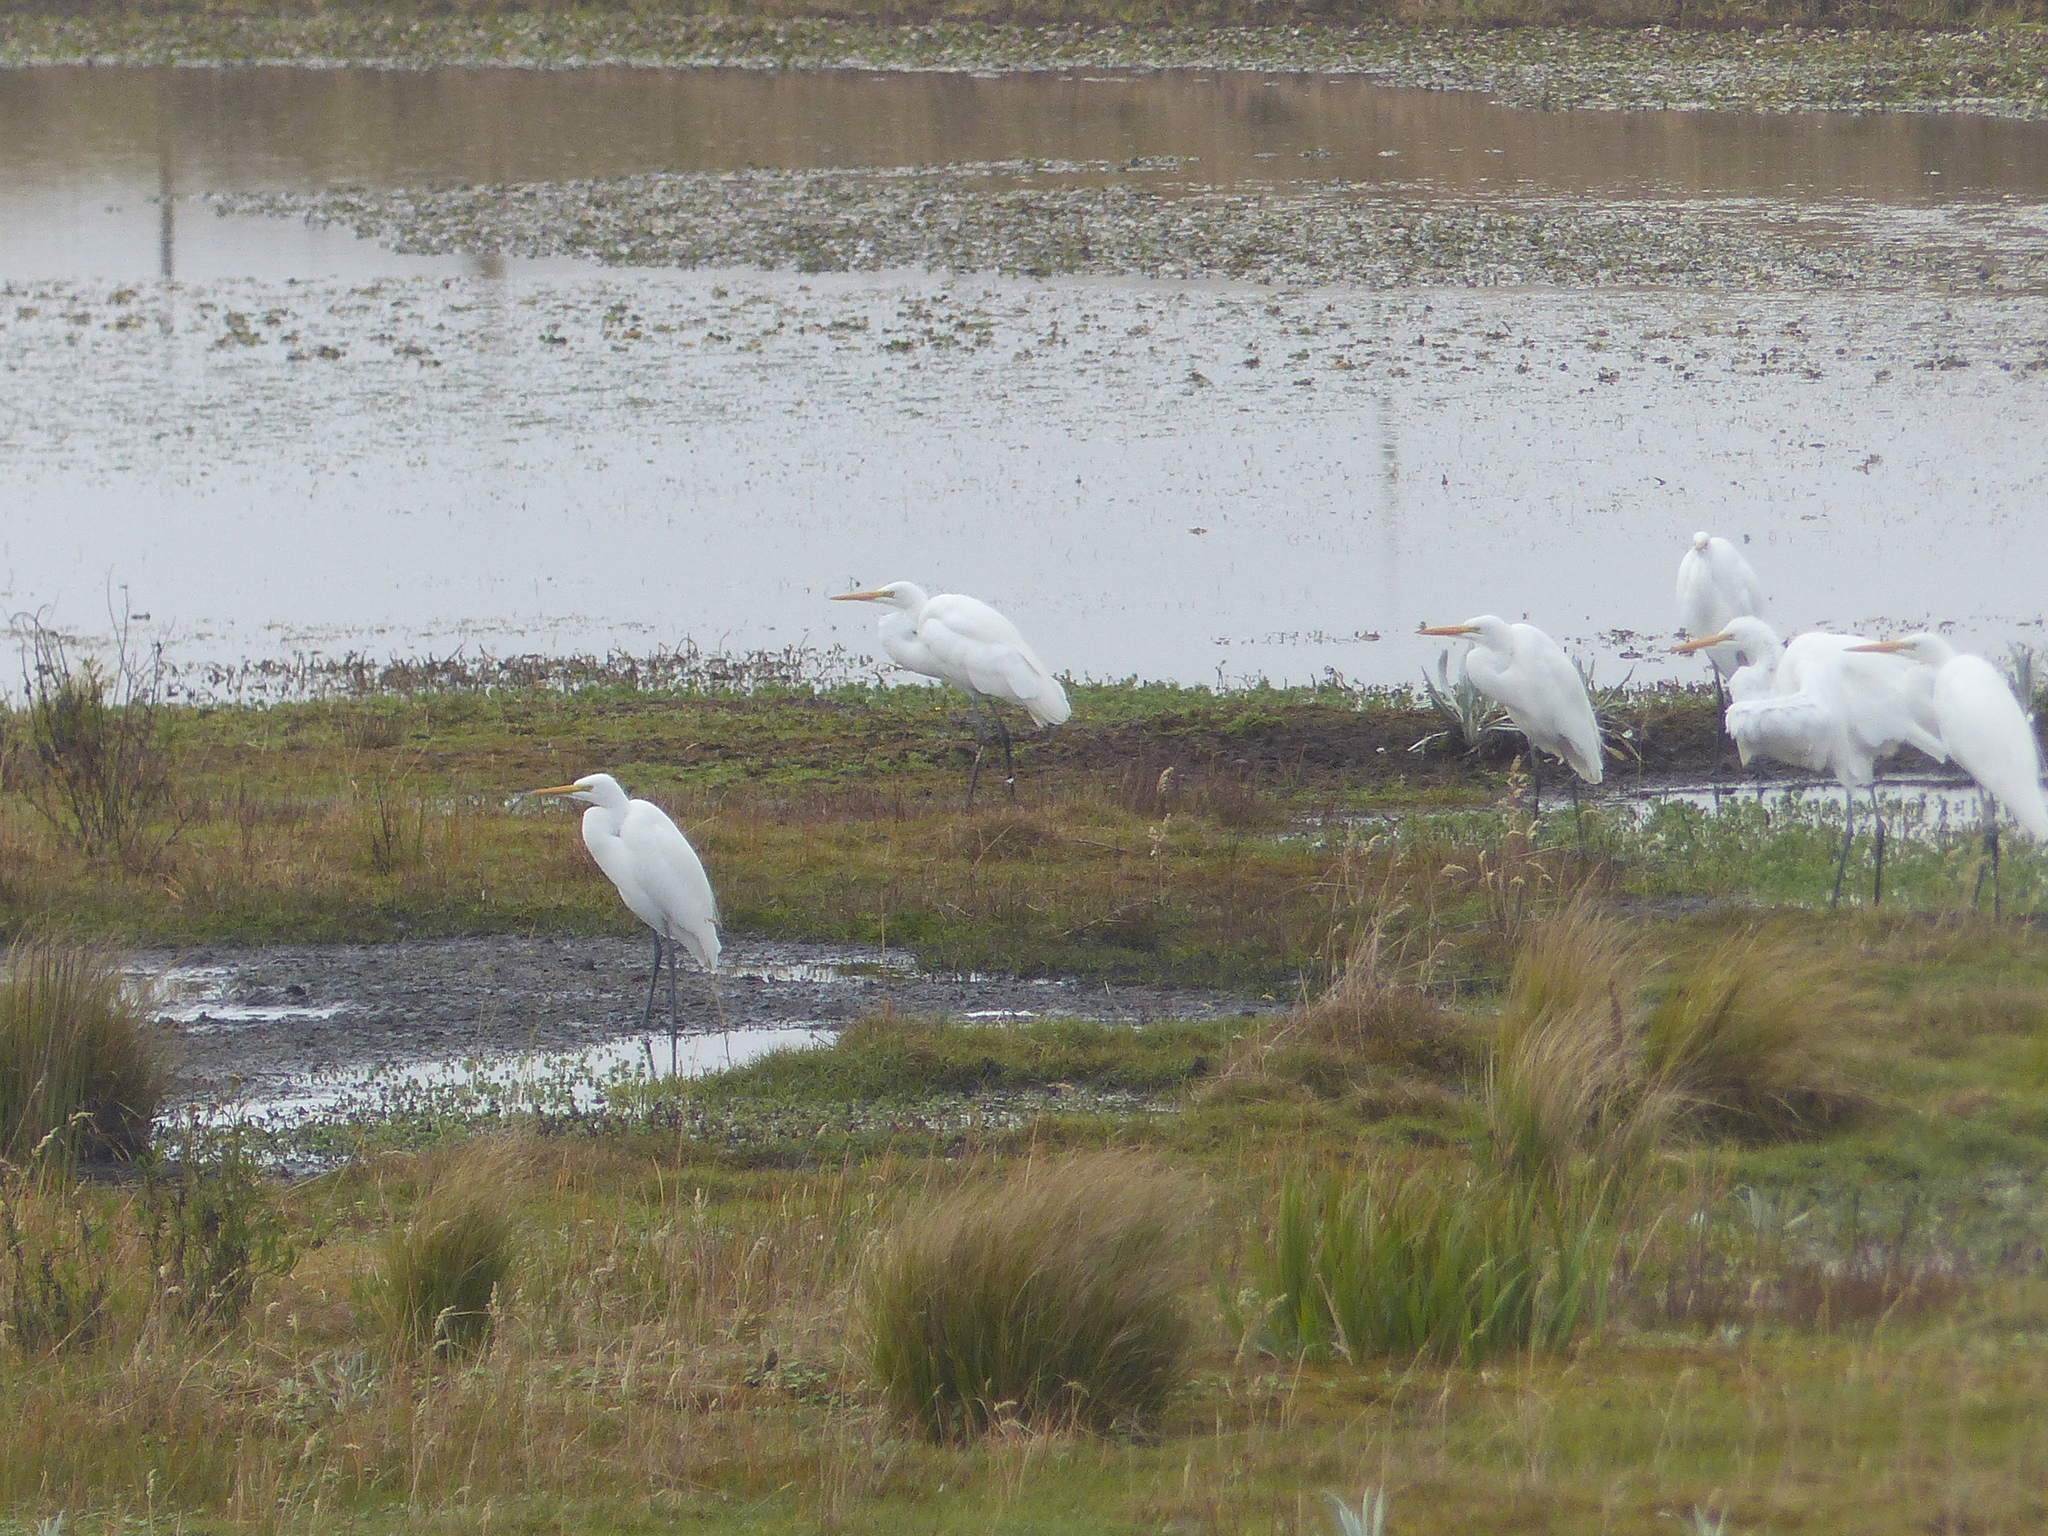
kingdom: Animalia
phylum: Chordata
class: Aves
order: Pelecaniformes
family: Ardeidae
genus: Ardea
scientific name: Ardea alba
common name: Great egret
